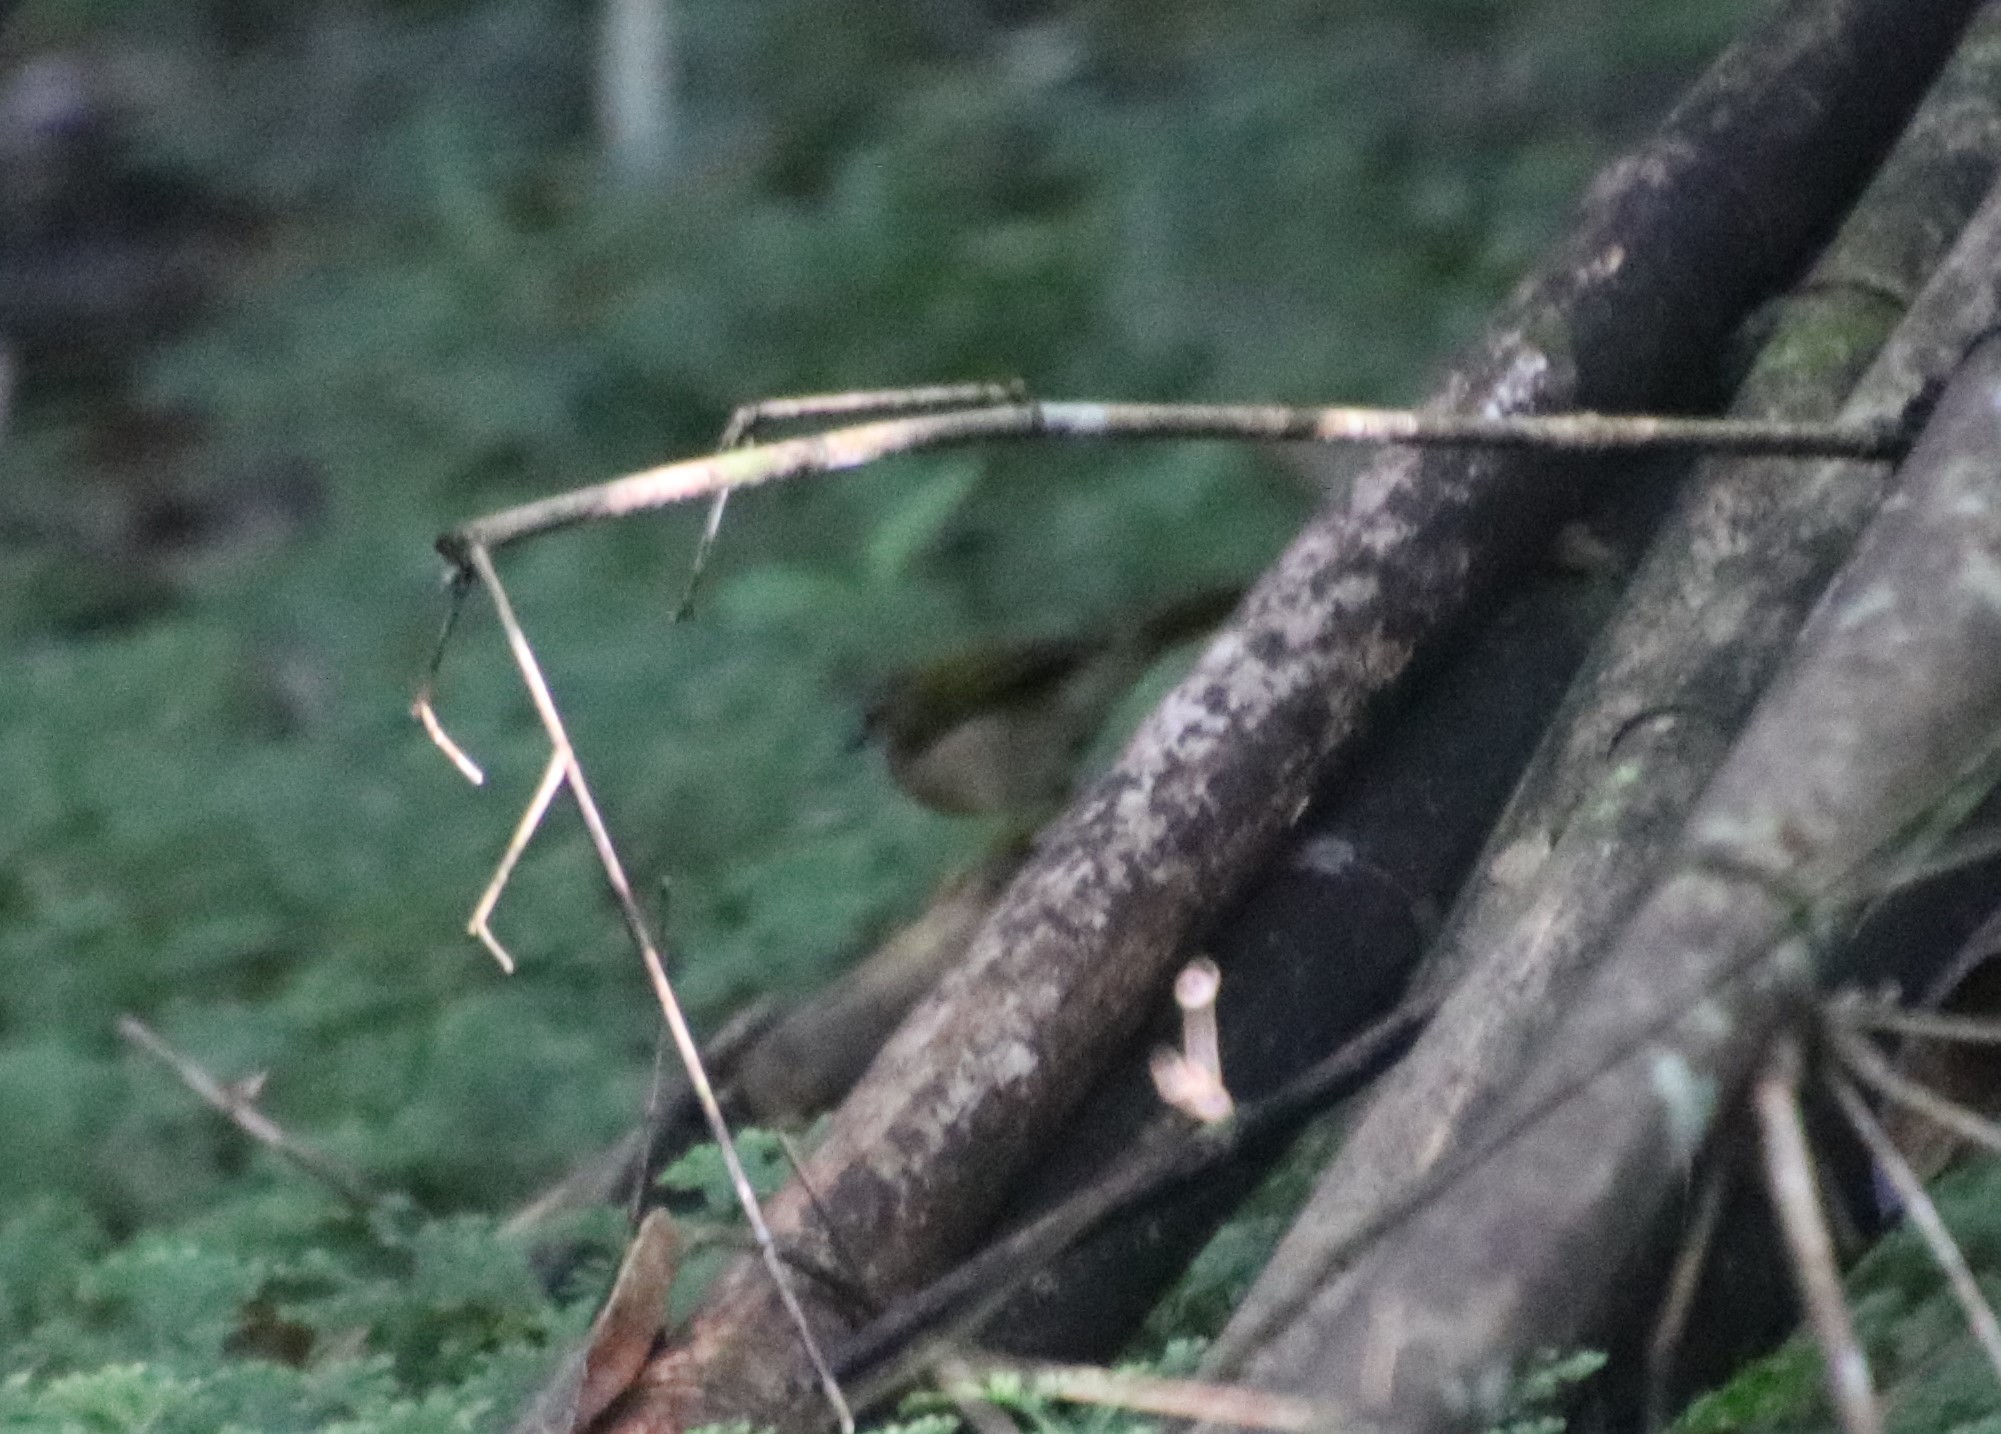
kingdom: Animalia
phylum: Chordata
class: Aves
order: Passeriformes
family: Parulidae
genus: Myiothlypis
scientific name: Myiothlypis rivularis
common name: Riverbank warbler
